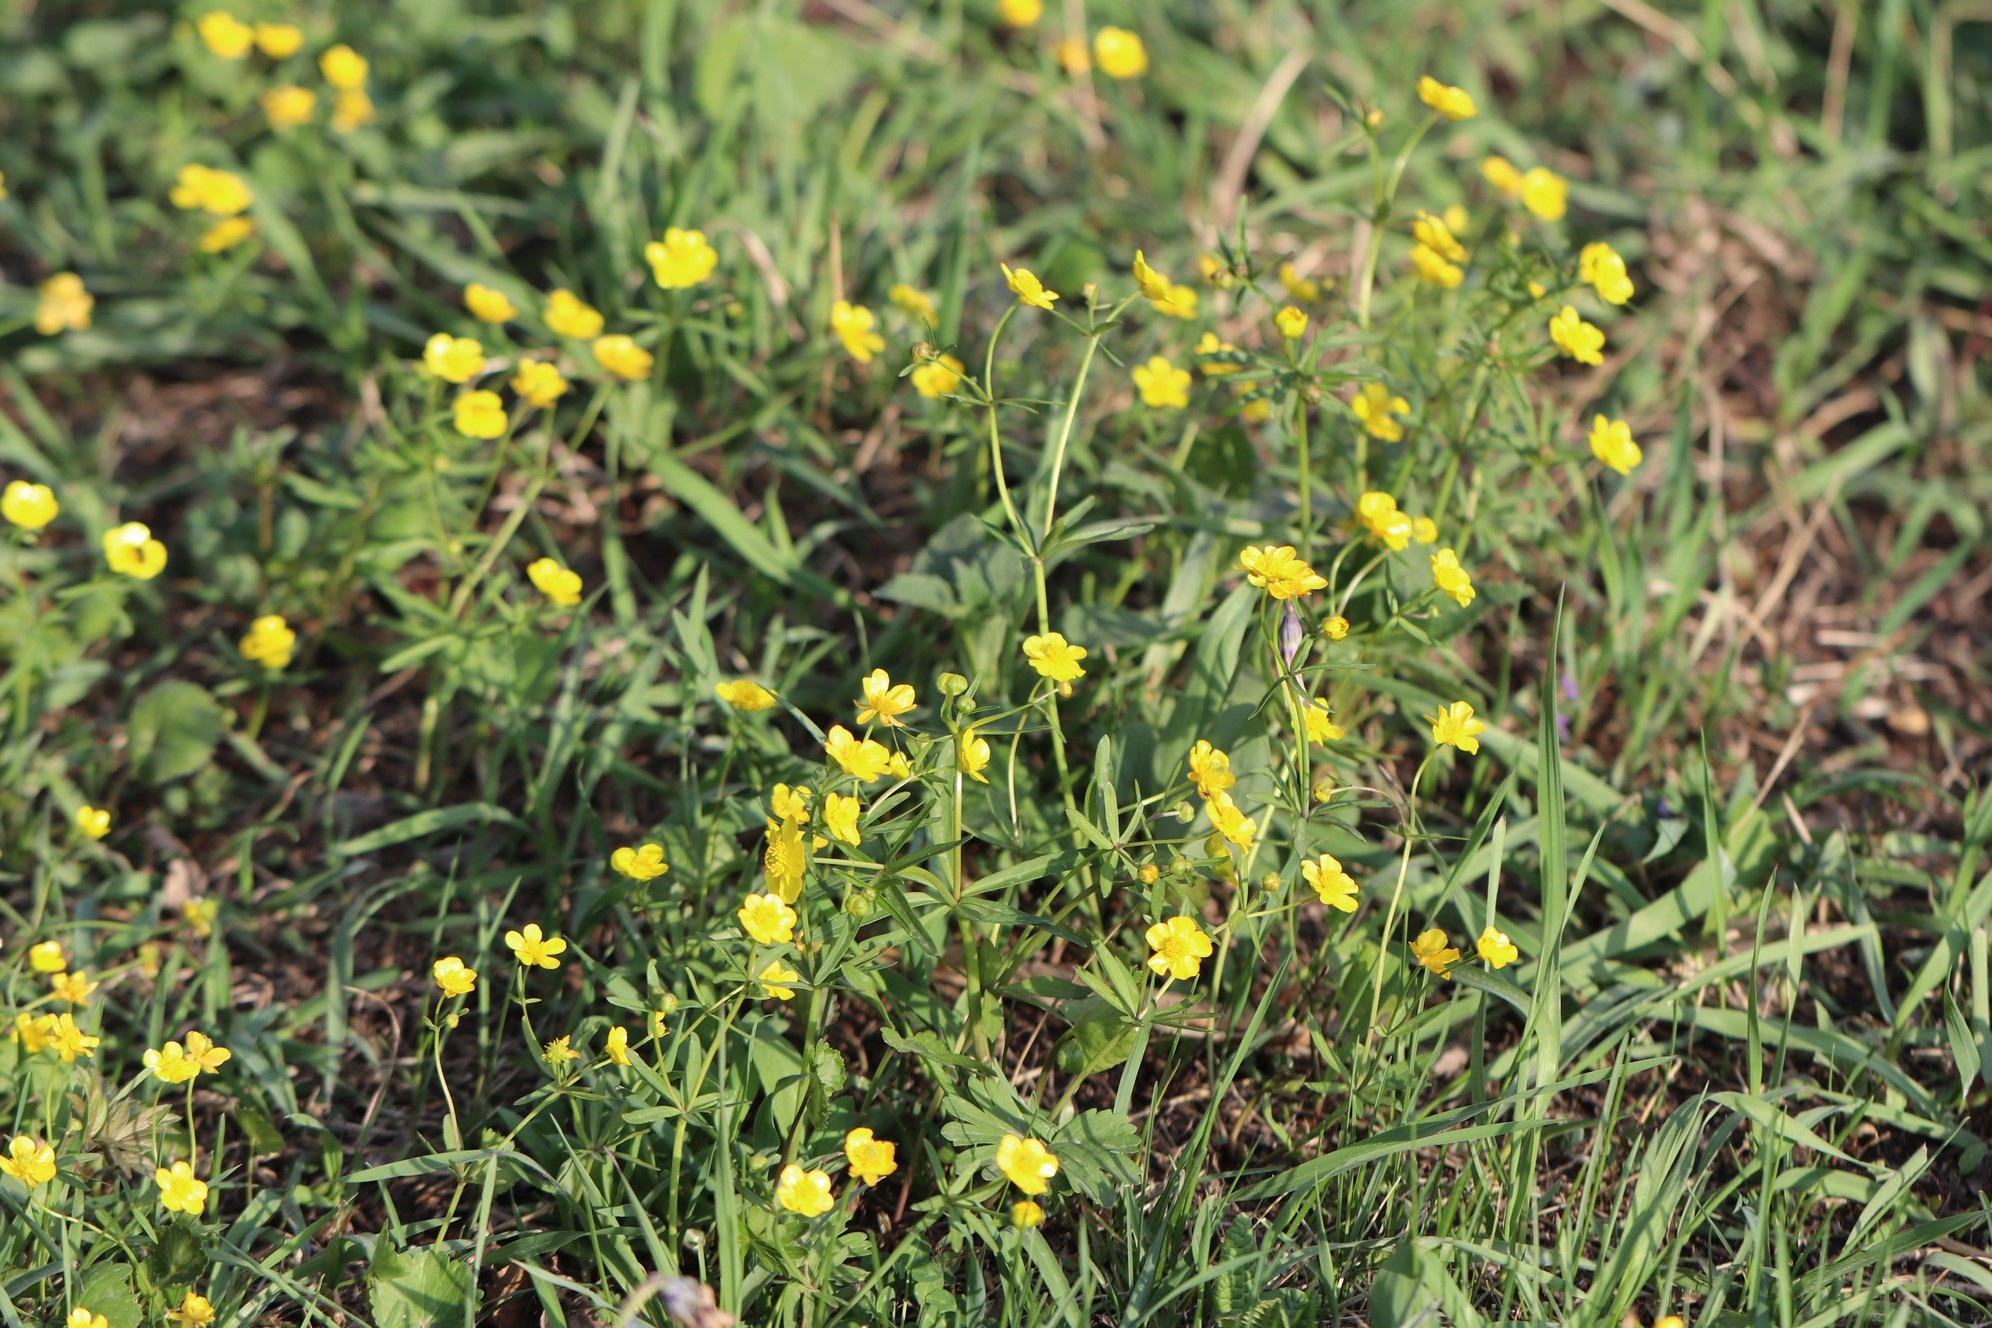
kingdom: Plantae
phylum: Tracheophyta
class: Magnoliopsida
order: Ranunculales
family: Ranunculaceae
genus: Ranunculus
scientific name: Ranunculus monophyllus
